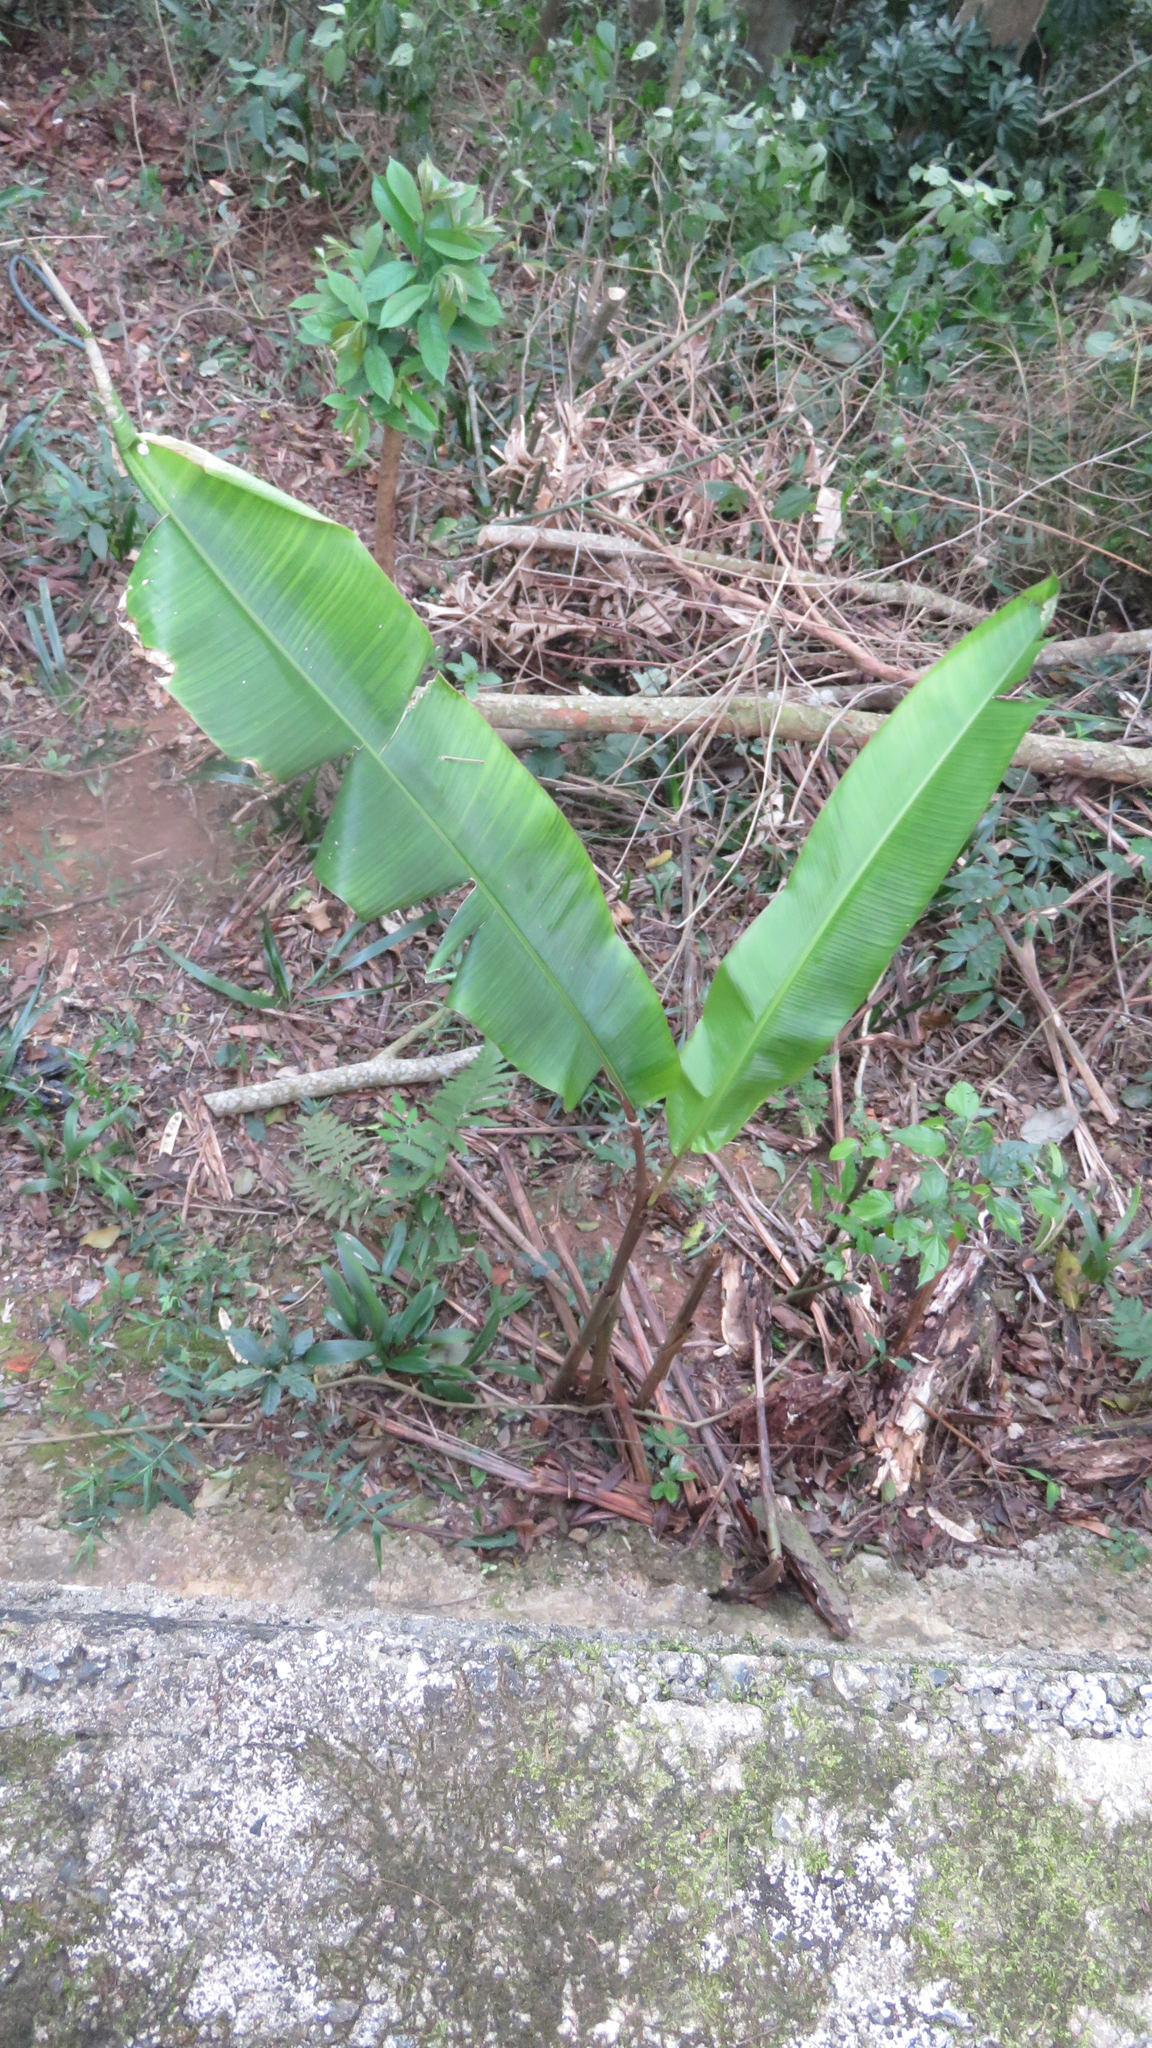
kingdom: Plantae
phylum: Tracheophyta
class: Liliopsida
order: Zingiberales
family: Heliconiaceae
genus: Heliconia
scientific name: Heliconia
